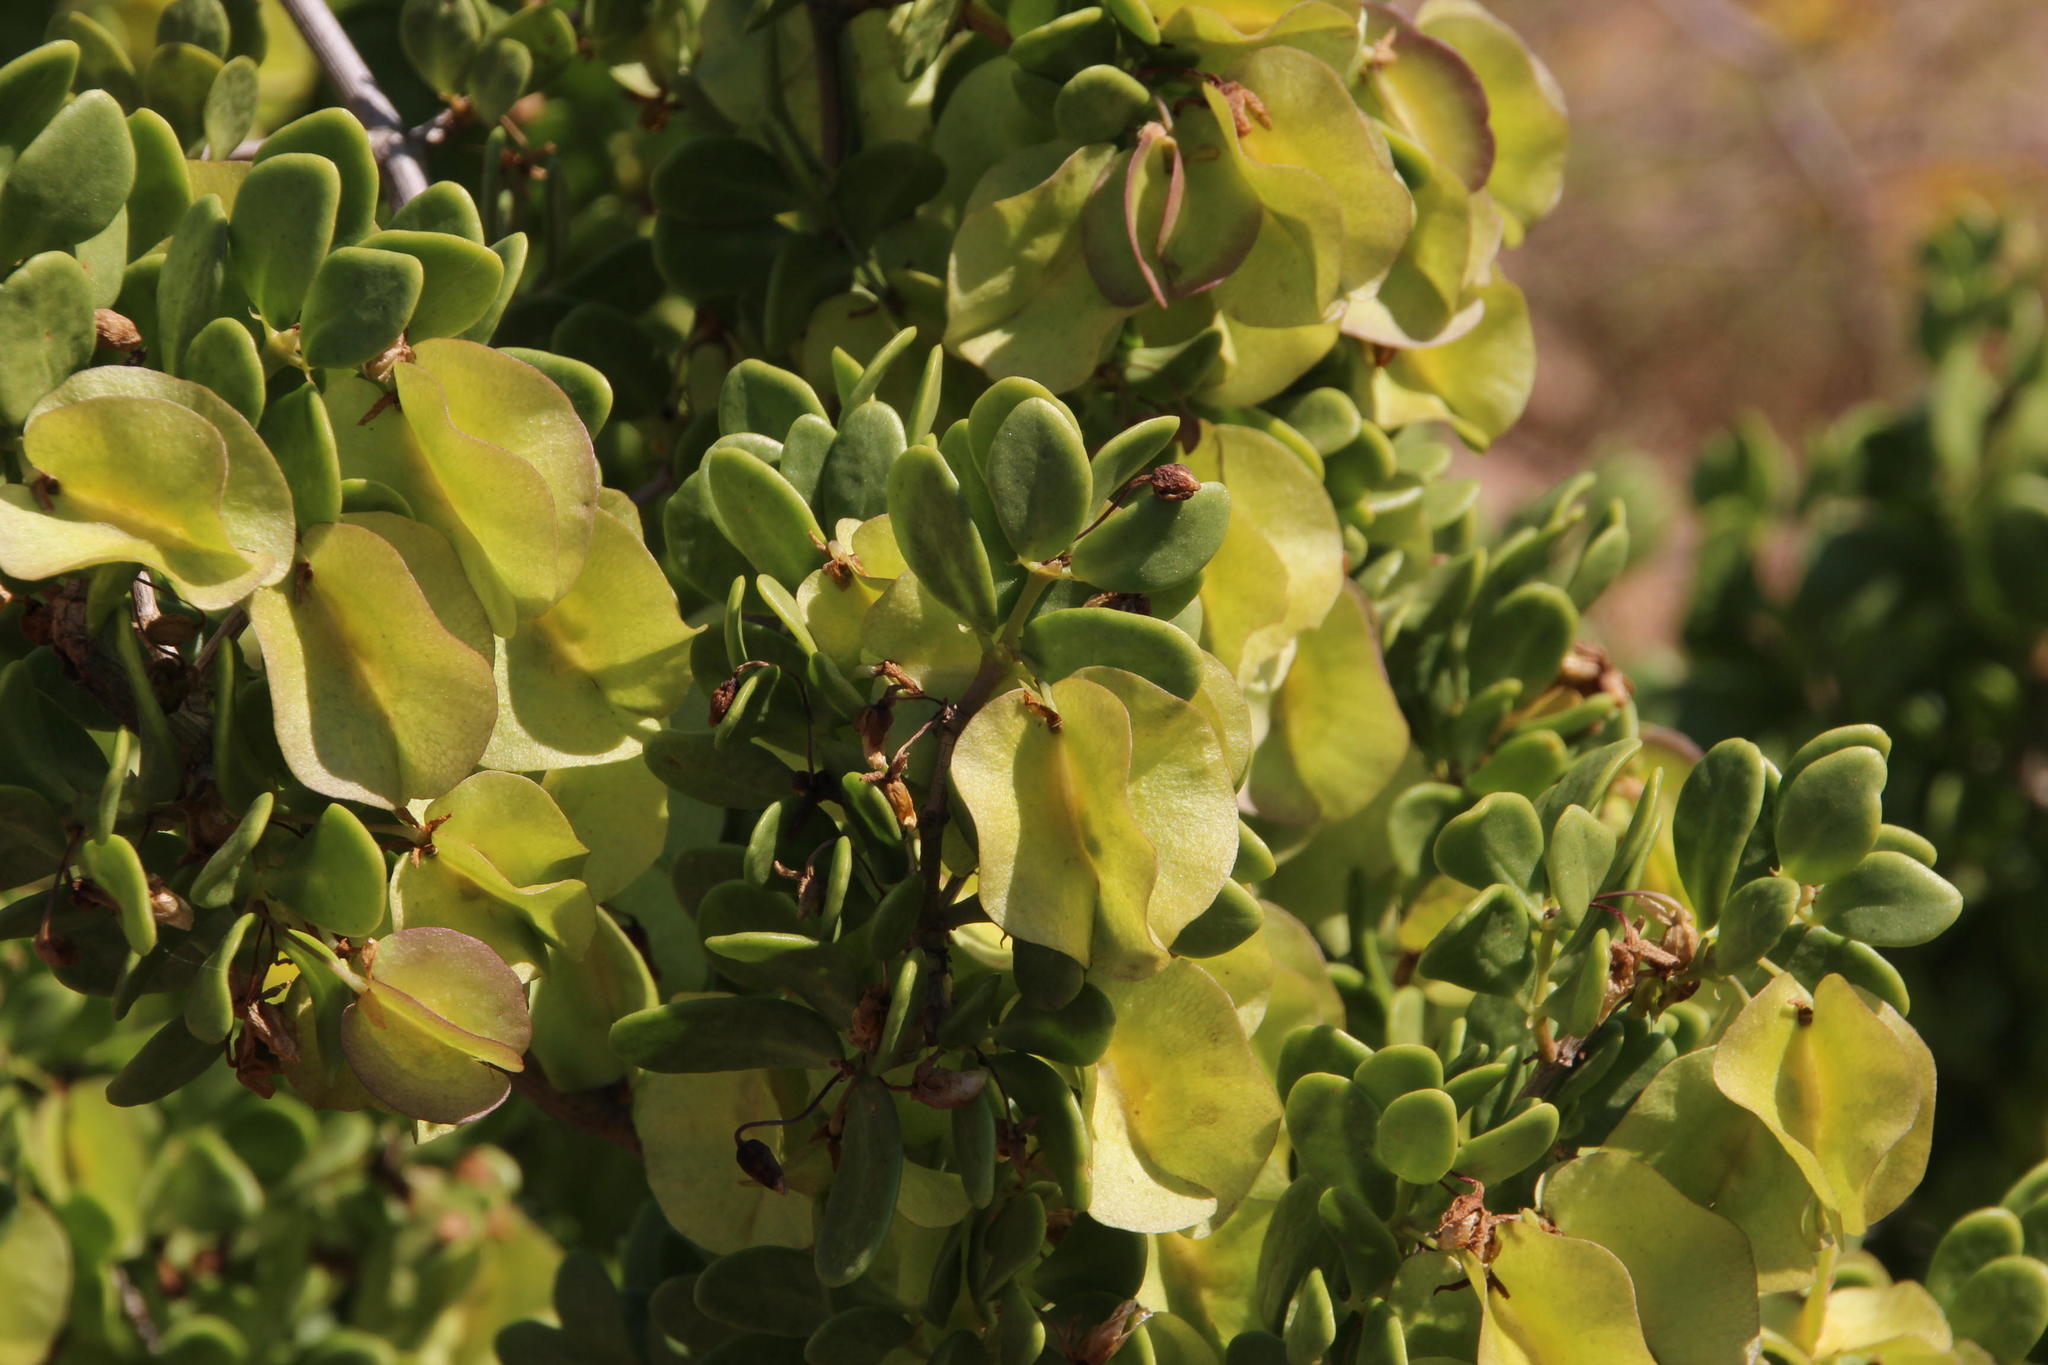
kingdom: Plantae
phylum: Tracheophyta
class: Magnoliopsida
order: Zygophyllales
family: Zygophyllaceae
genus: Roepera
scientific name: Roepera morgsana
